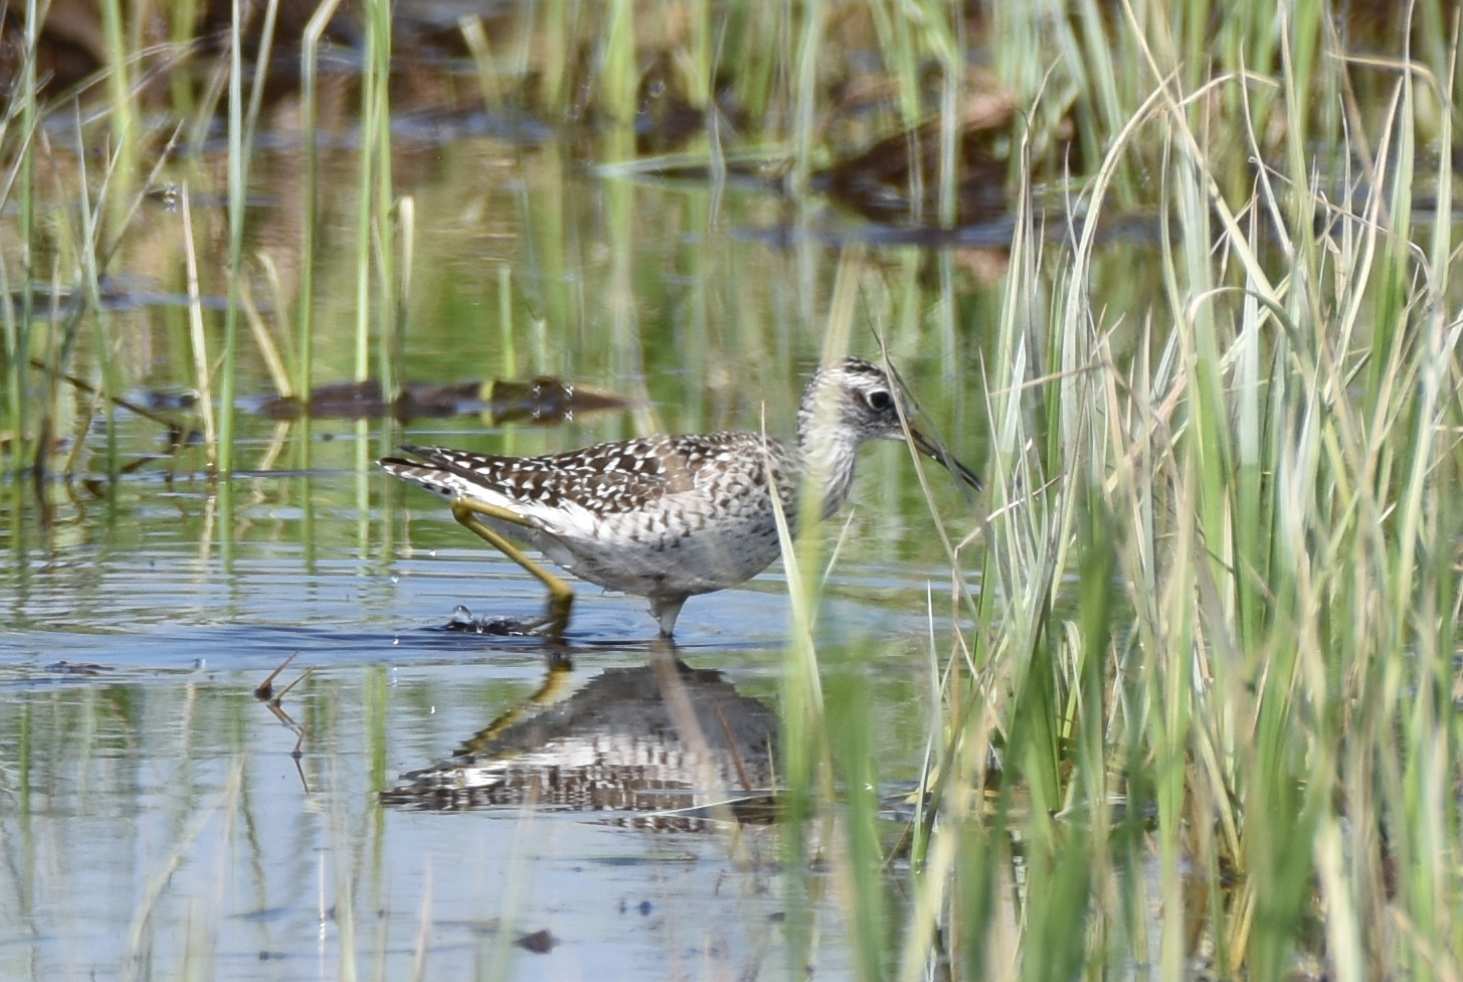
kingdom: Animalia
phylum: Chordata
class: Aves
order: Charadriiformes
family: Scolopacidae
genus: Tringa
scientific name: Tringa glareola
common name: Wood sandpiper
